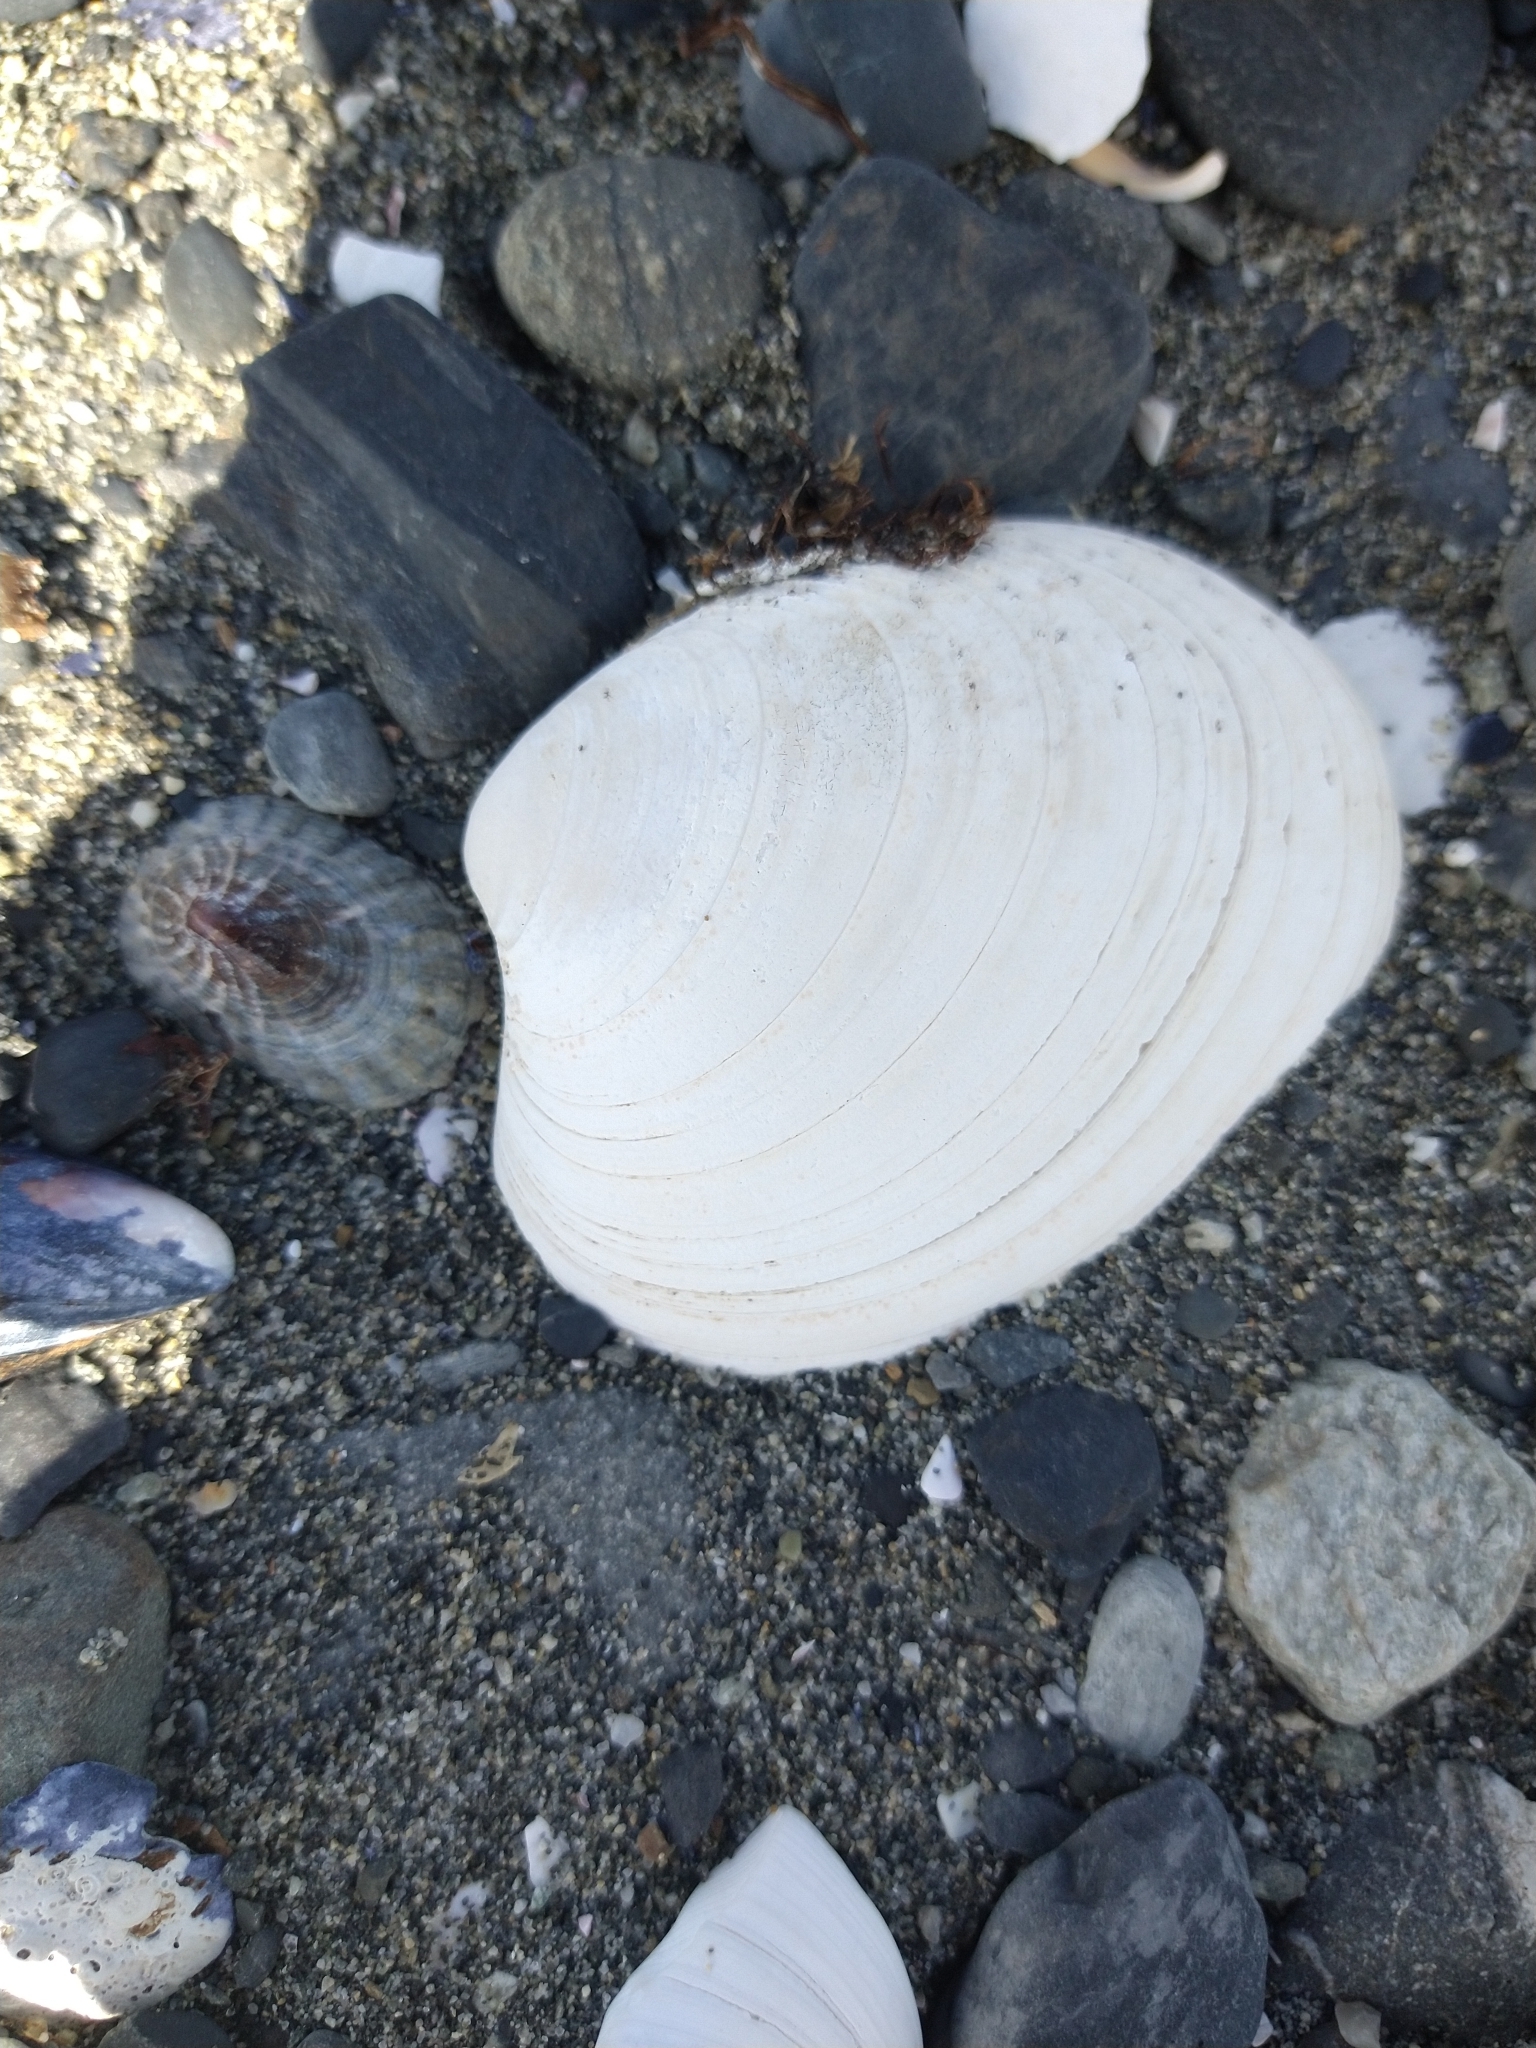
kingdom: Animalia
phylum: Mollusca
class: Bivalvia
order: Venerida
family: Veneridae
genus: Retrotapes
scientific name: Retrotapes exalbidus
